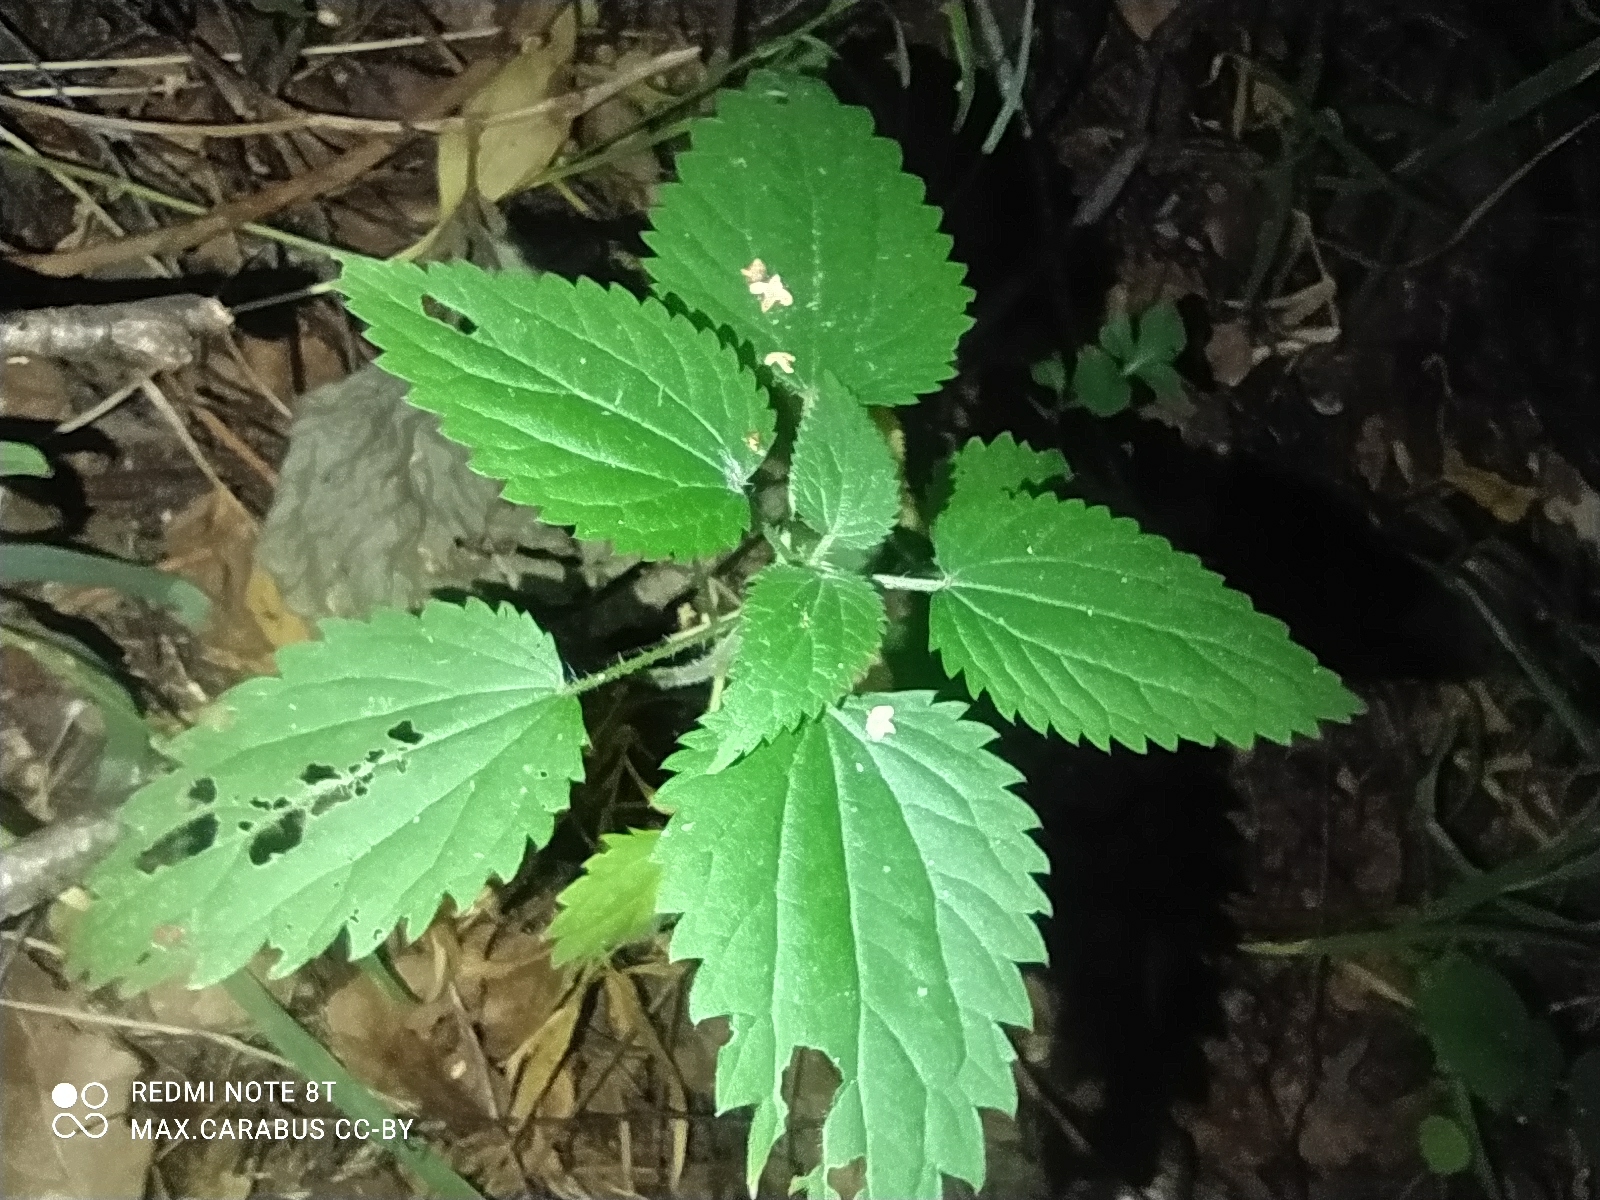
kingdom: Plantae
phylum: Tracheophyta
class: Magnoliopsida
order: Rosales
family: Urticaceae
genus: Urtica
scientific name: Urtica dioica
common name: Common nettle
